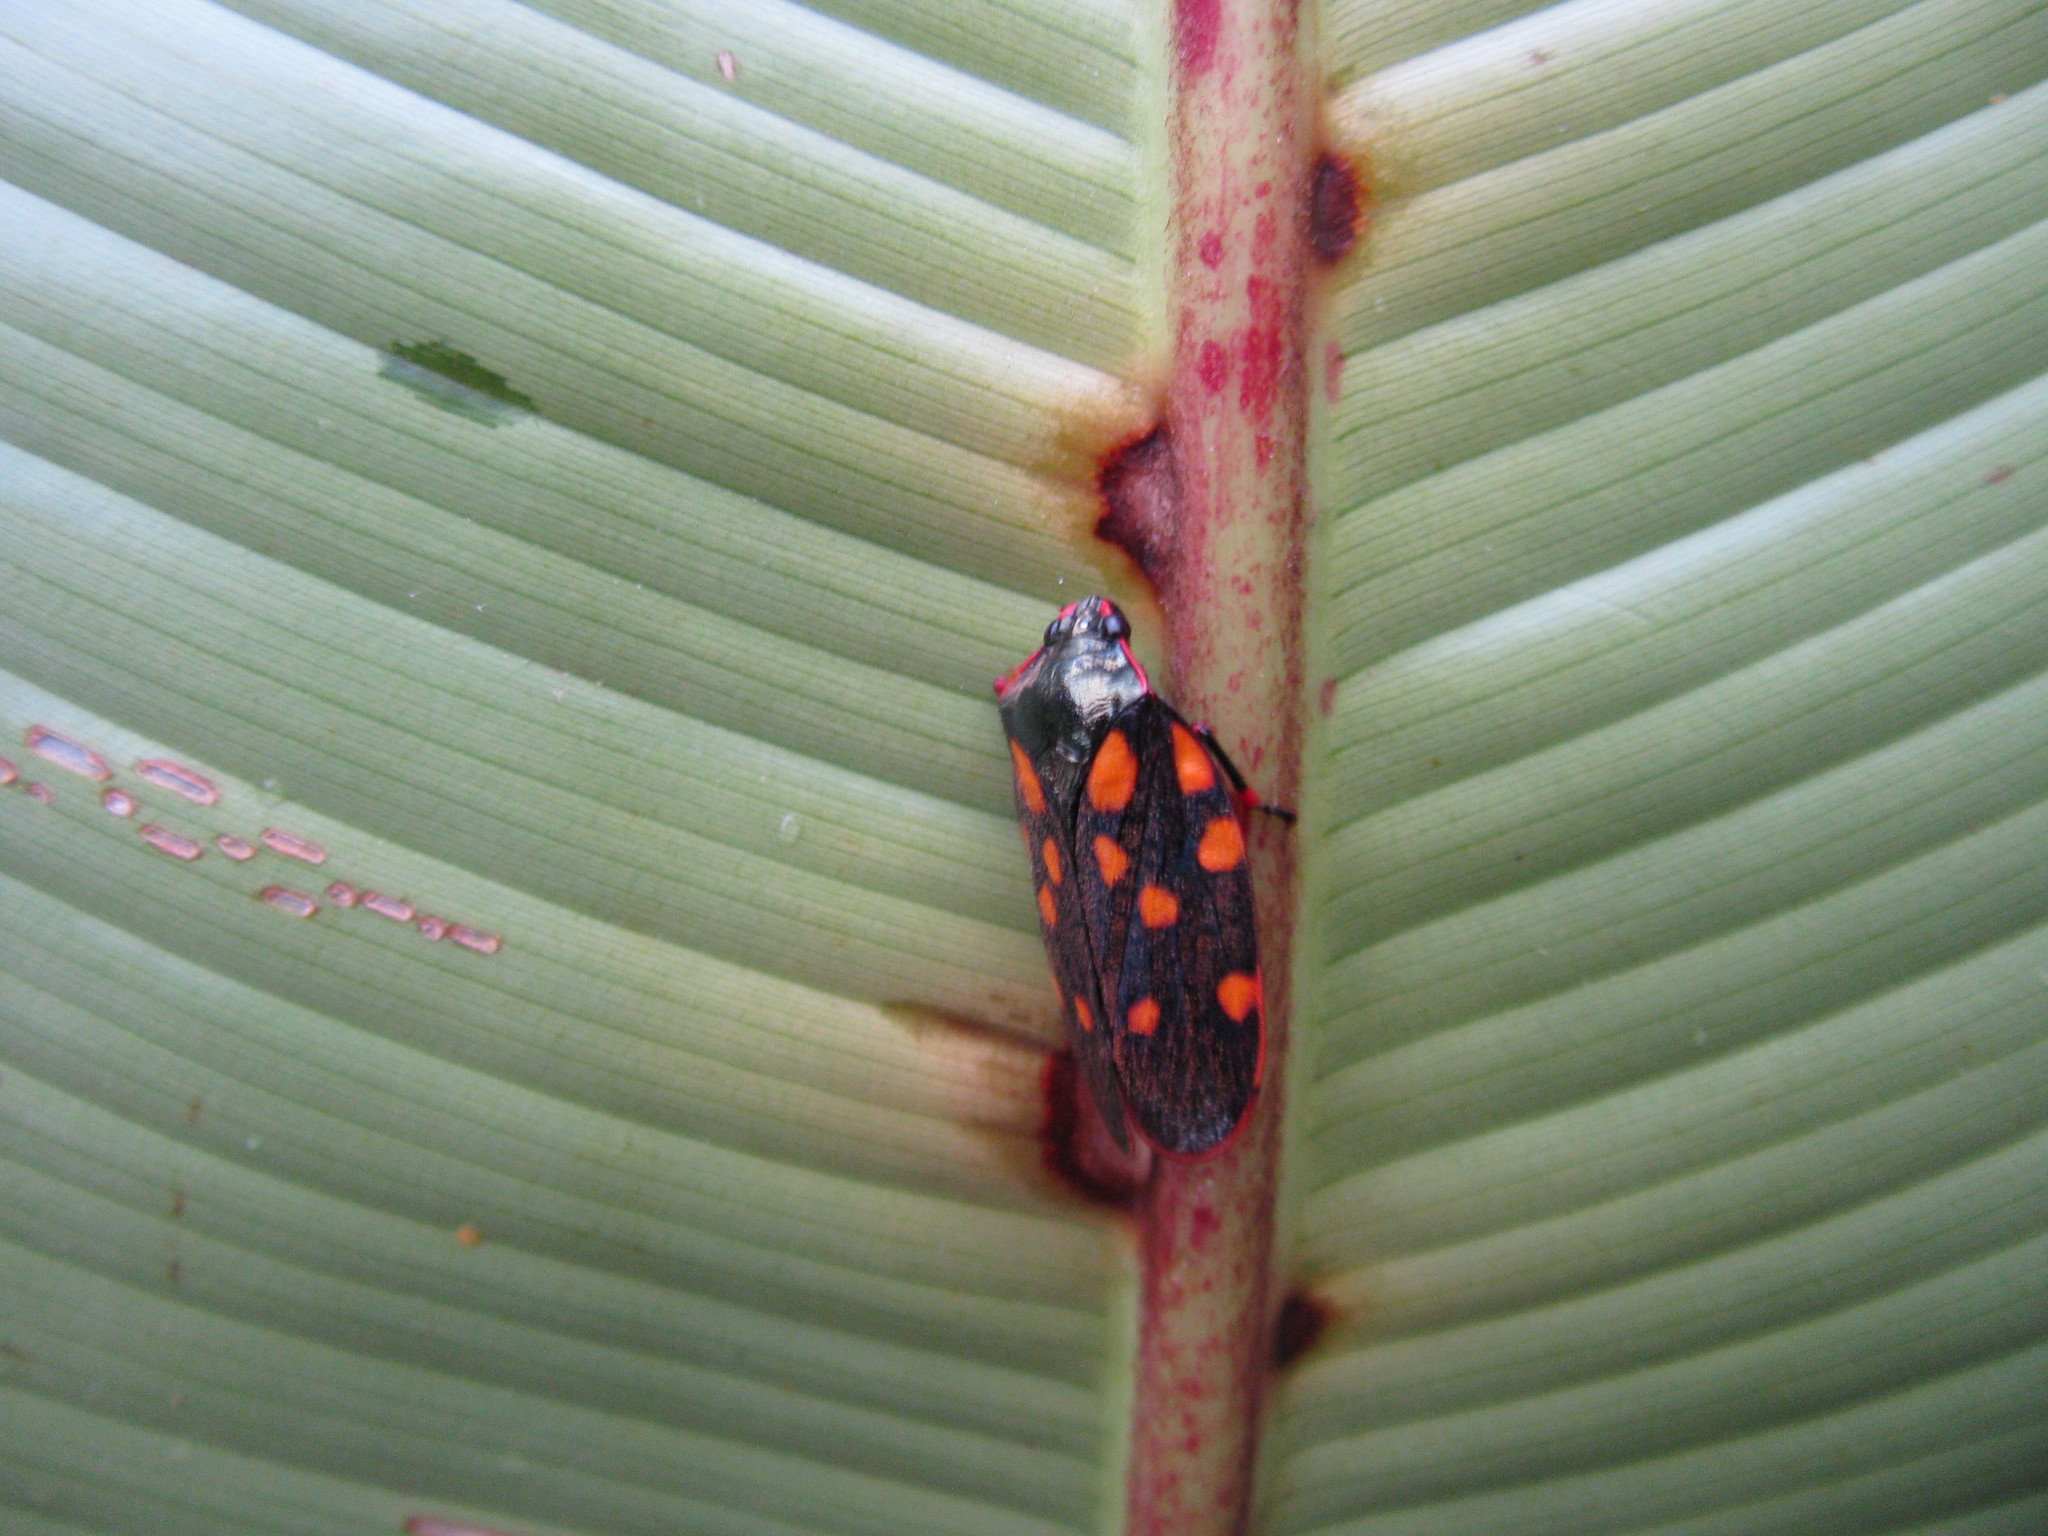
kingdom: Animalia
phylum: Arthropoda
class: Insecta
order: Hemiptera
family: Cercopidae
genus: Mahanarva
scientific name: Mahanarva costaricensis
